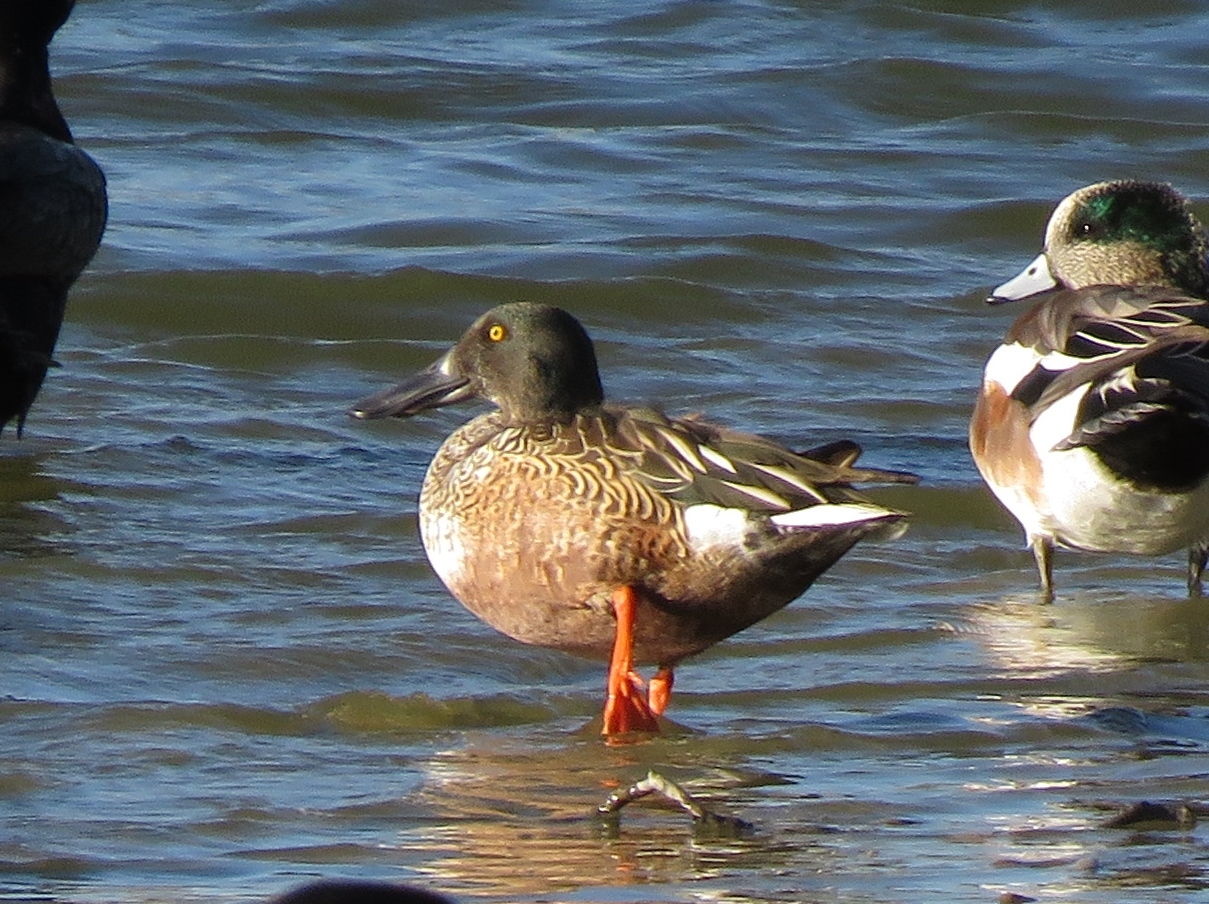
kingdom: Animalia
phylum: Chordata
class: Aves
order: Anseriformes
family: Anatidae
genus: Spatula
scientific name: Spatula clypeata
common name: Northern shoveler
